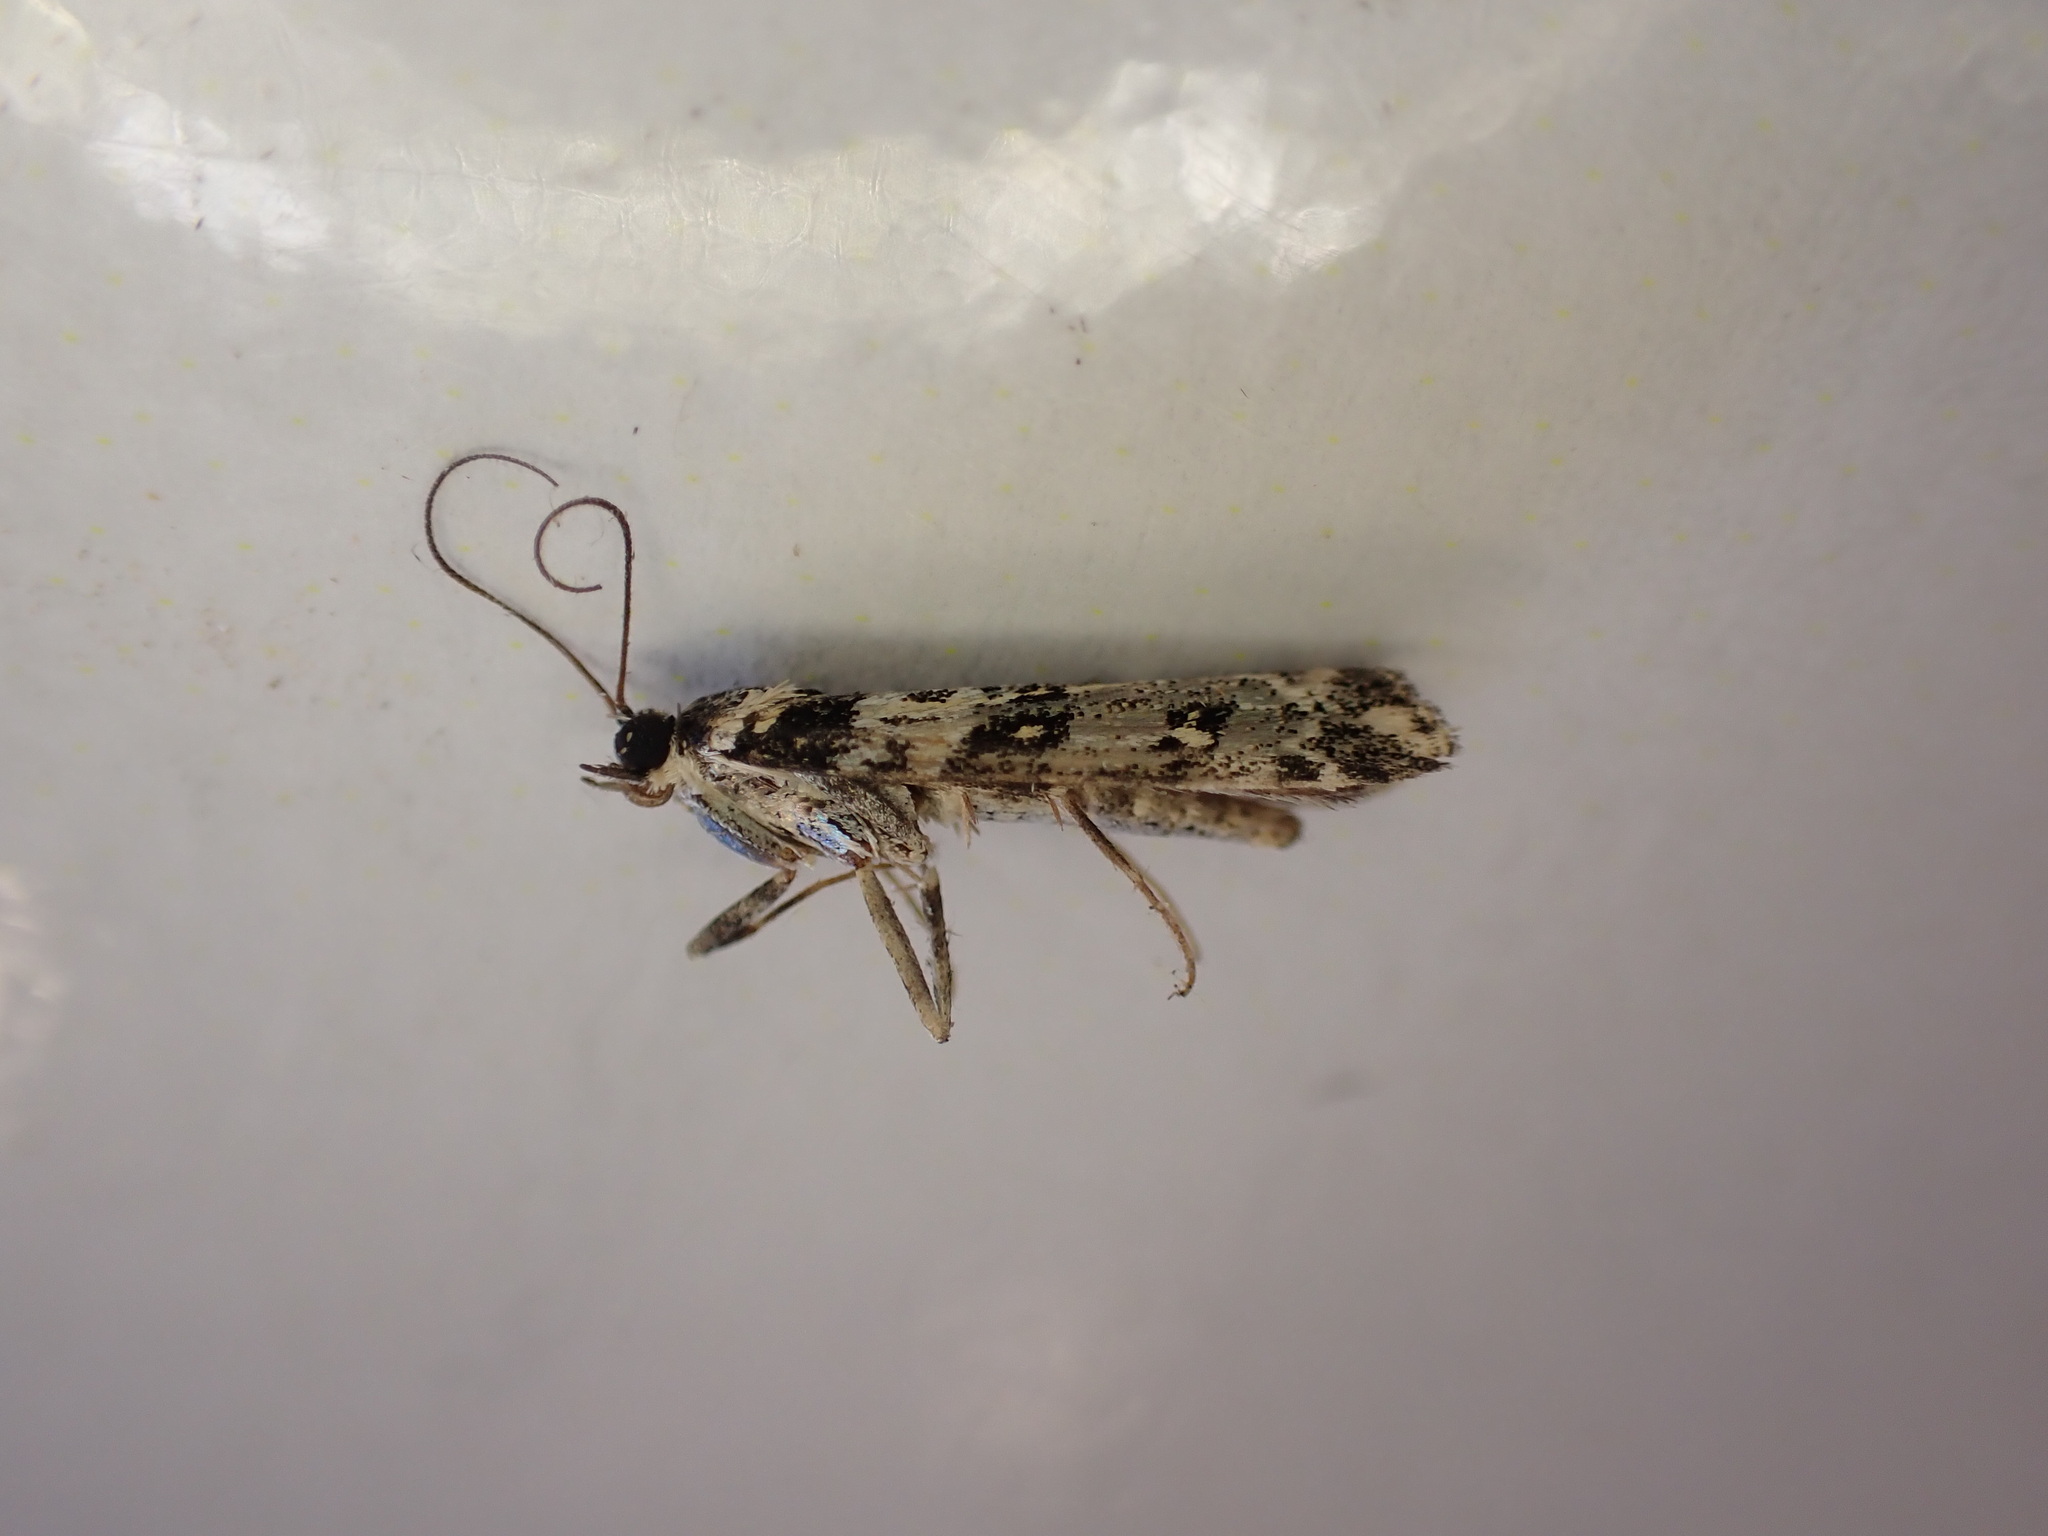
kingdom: Animalia
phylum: Arthropoda
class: Insecta
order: Lepidoptera
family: Crambidae
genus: Eudonia
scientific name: Eudonia diphtheralis
